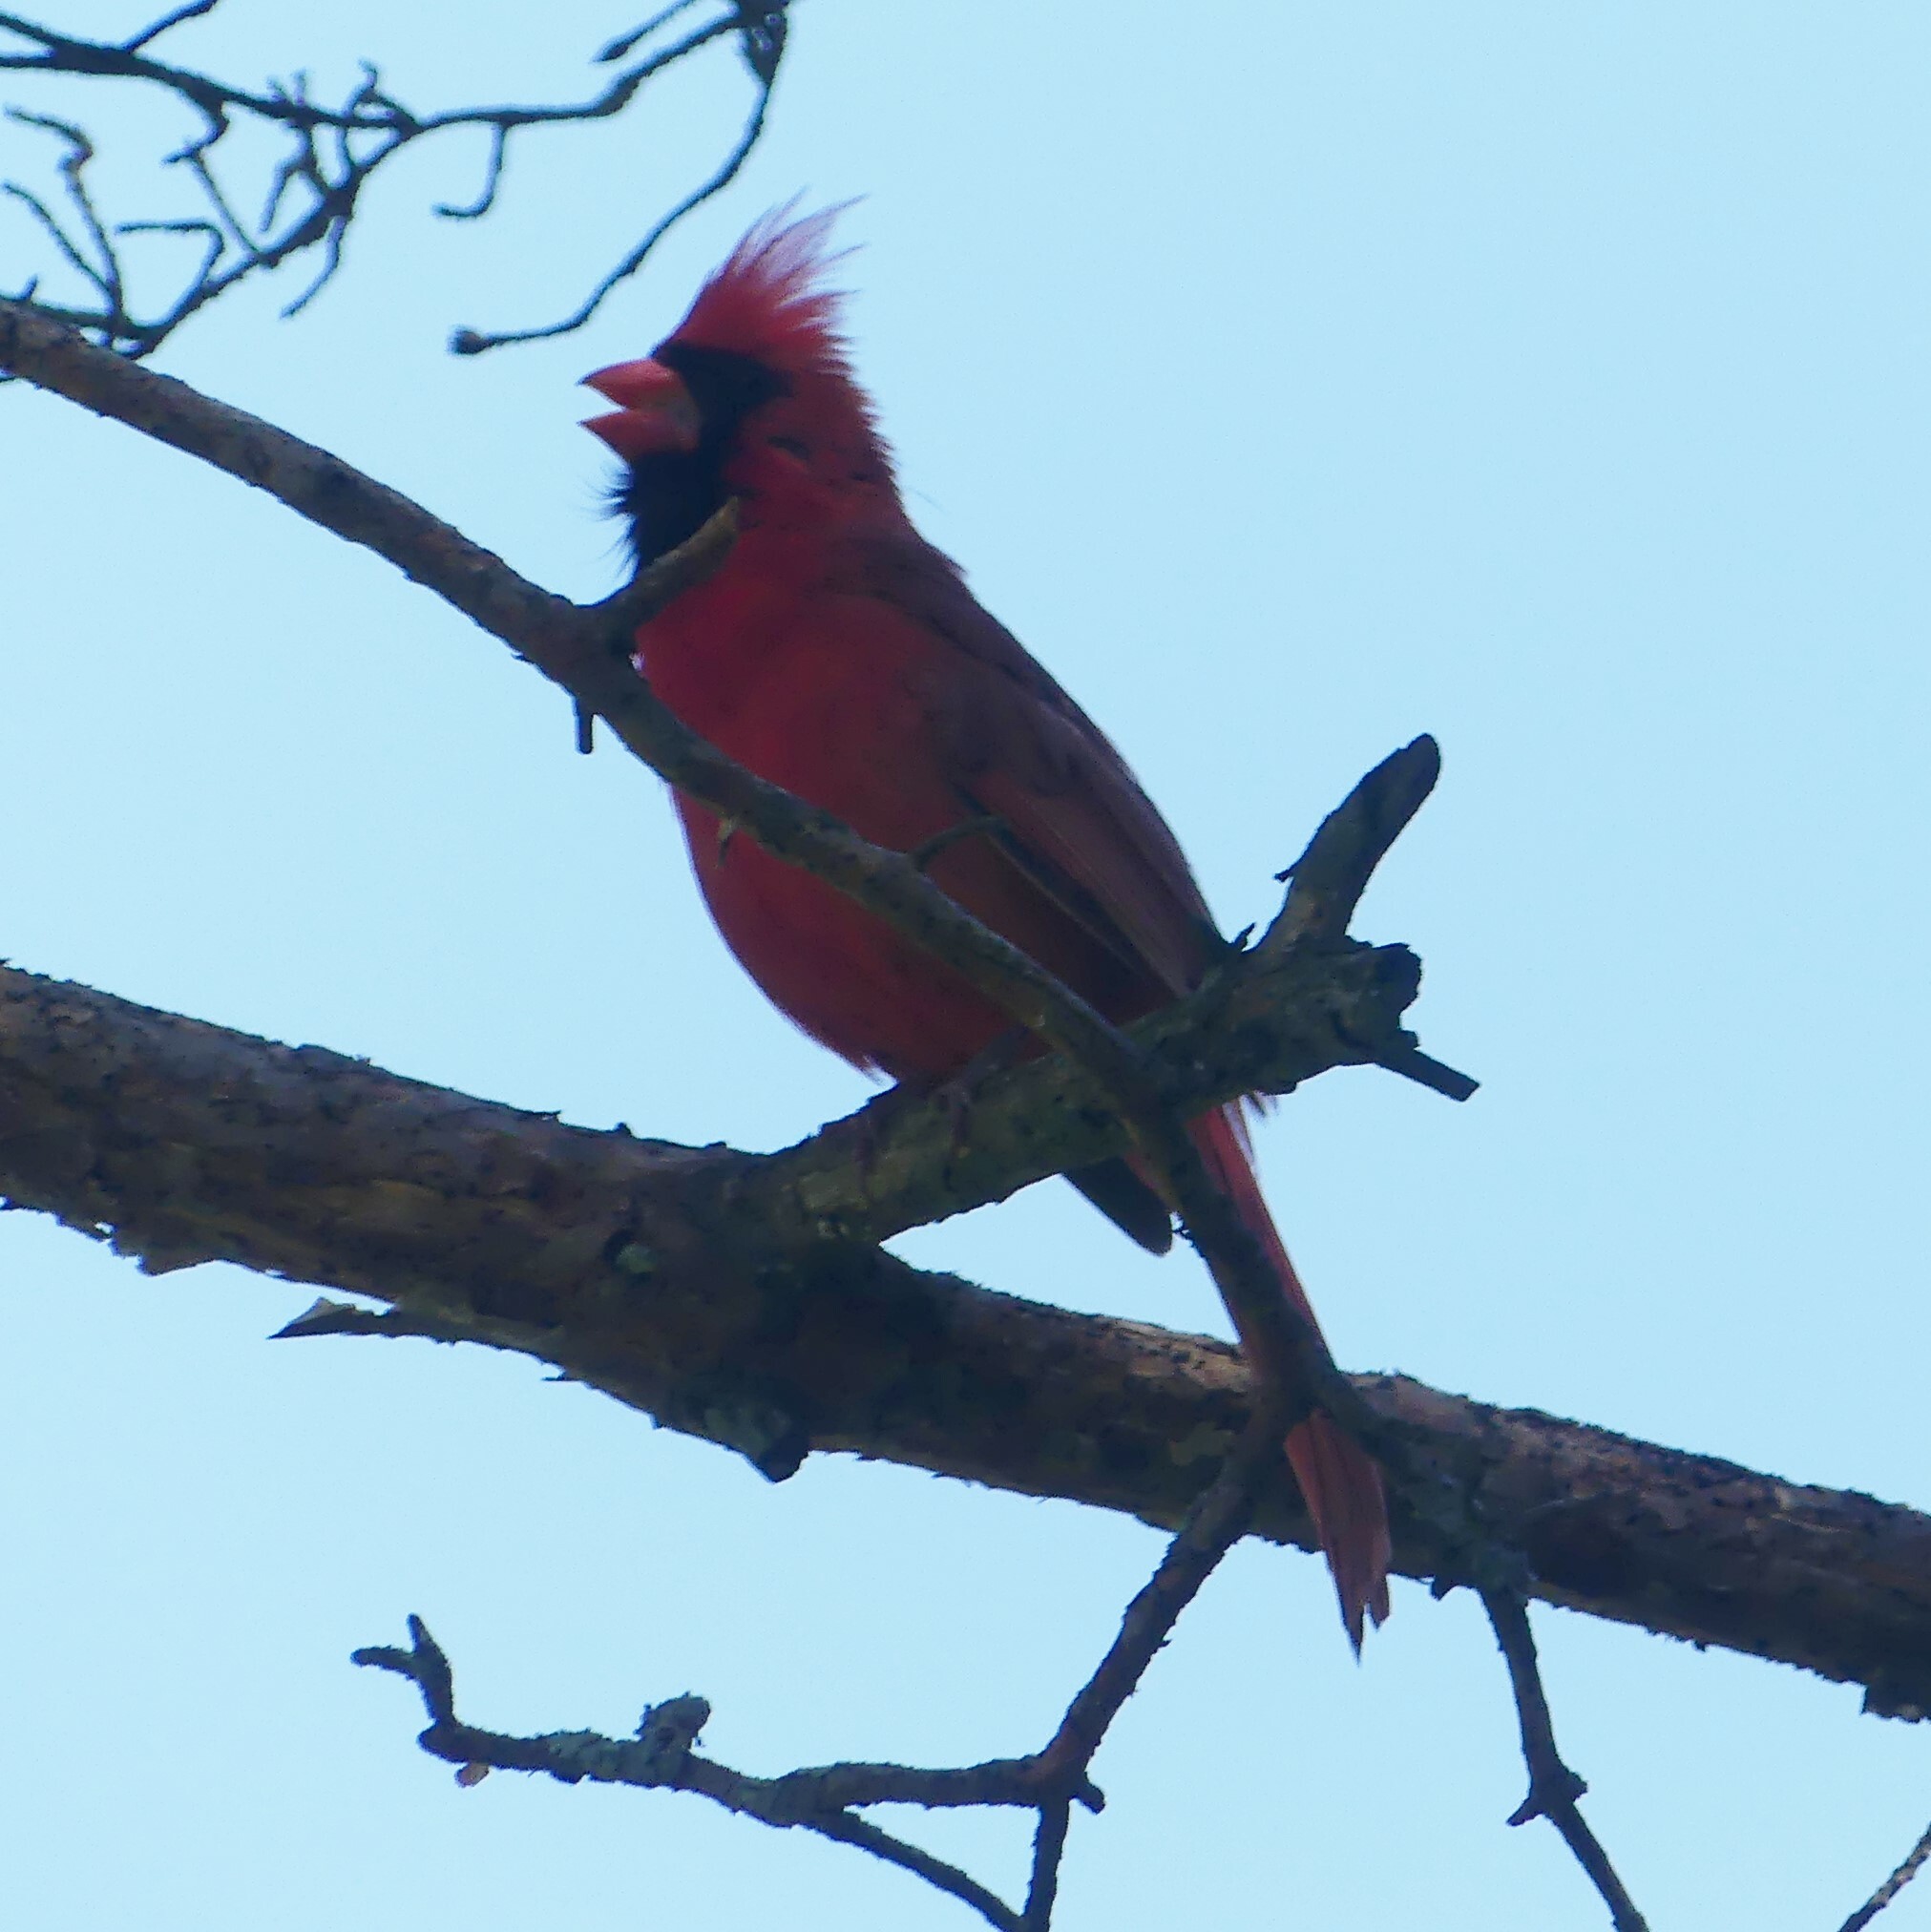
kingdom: Animalia
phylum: Chordata
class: Aves
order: Passeriformes
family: Cardinalidae
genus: Cardinalis
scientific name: Cardinalis cardinalis
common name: Northern cardinal
